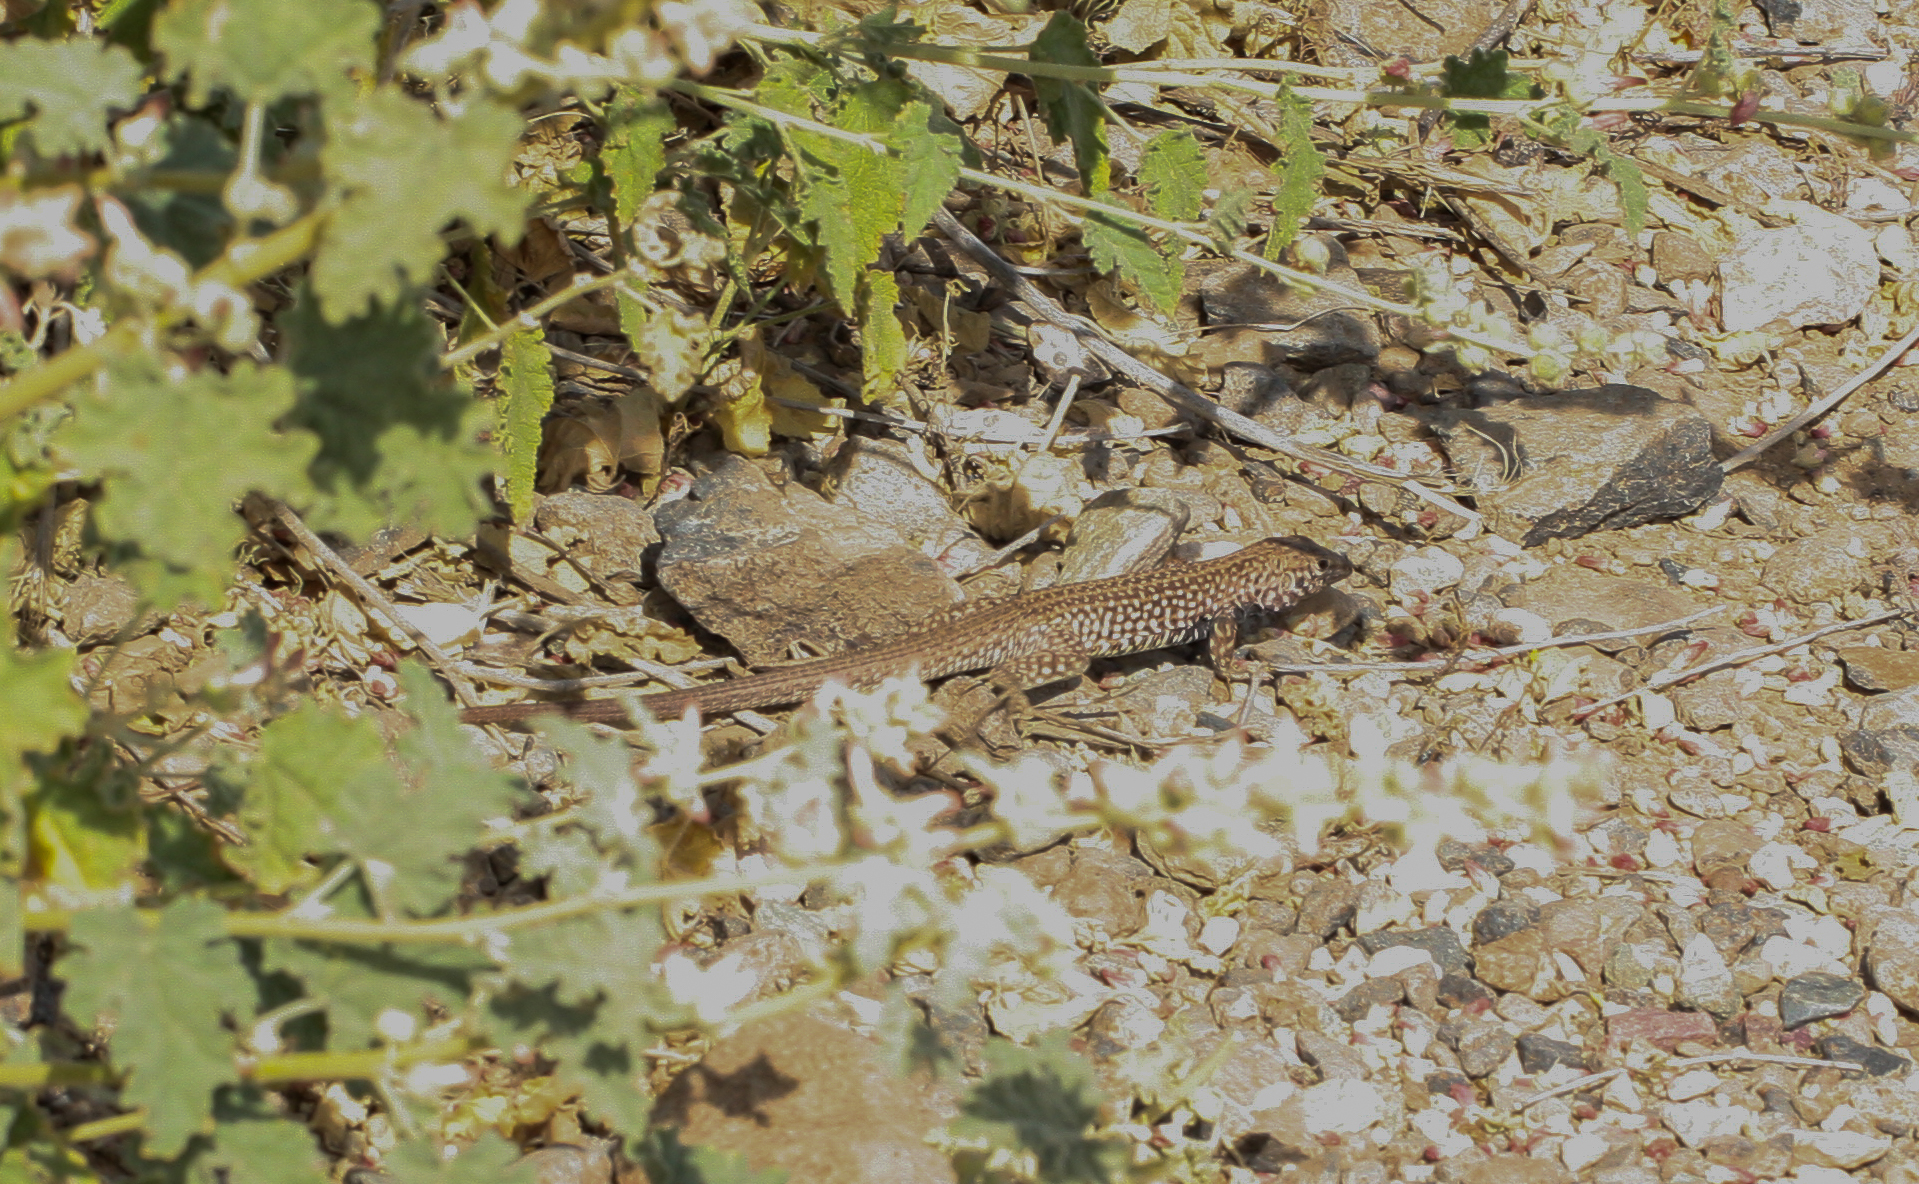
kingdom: Animalia
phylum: Chordata
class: Squamata
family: Teiidae
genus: Aspidoscelis
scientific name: Aspidoscelis tigris
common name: Tiger whiptail
